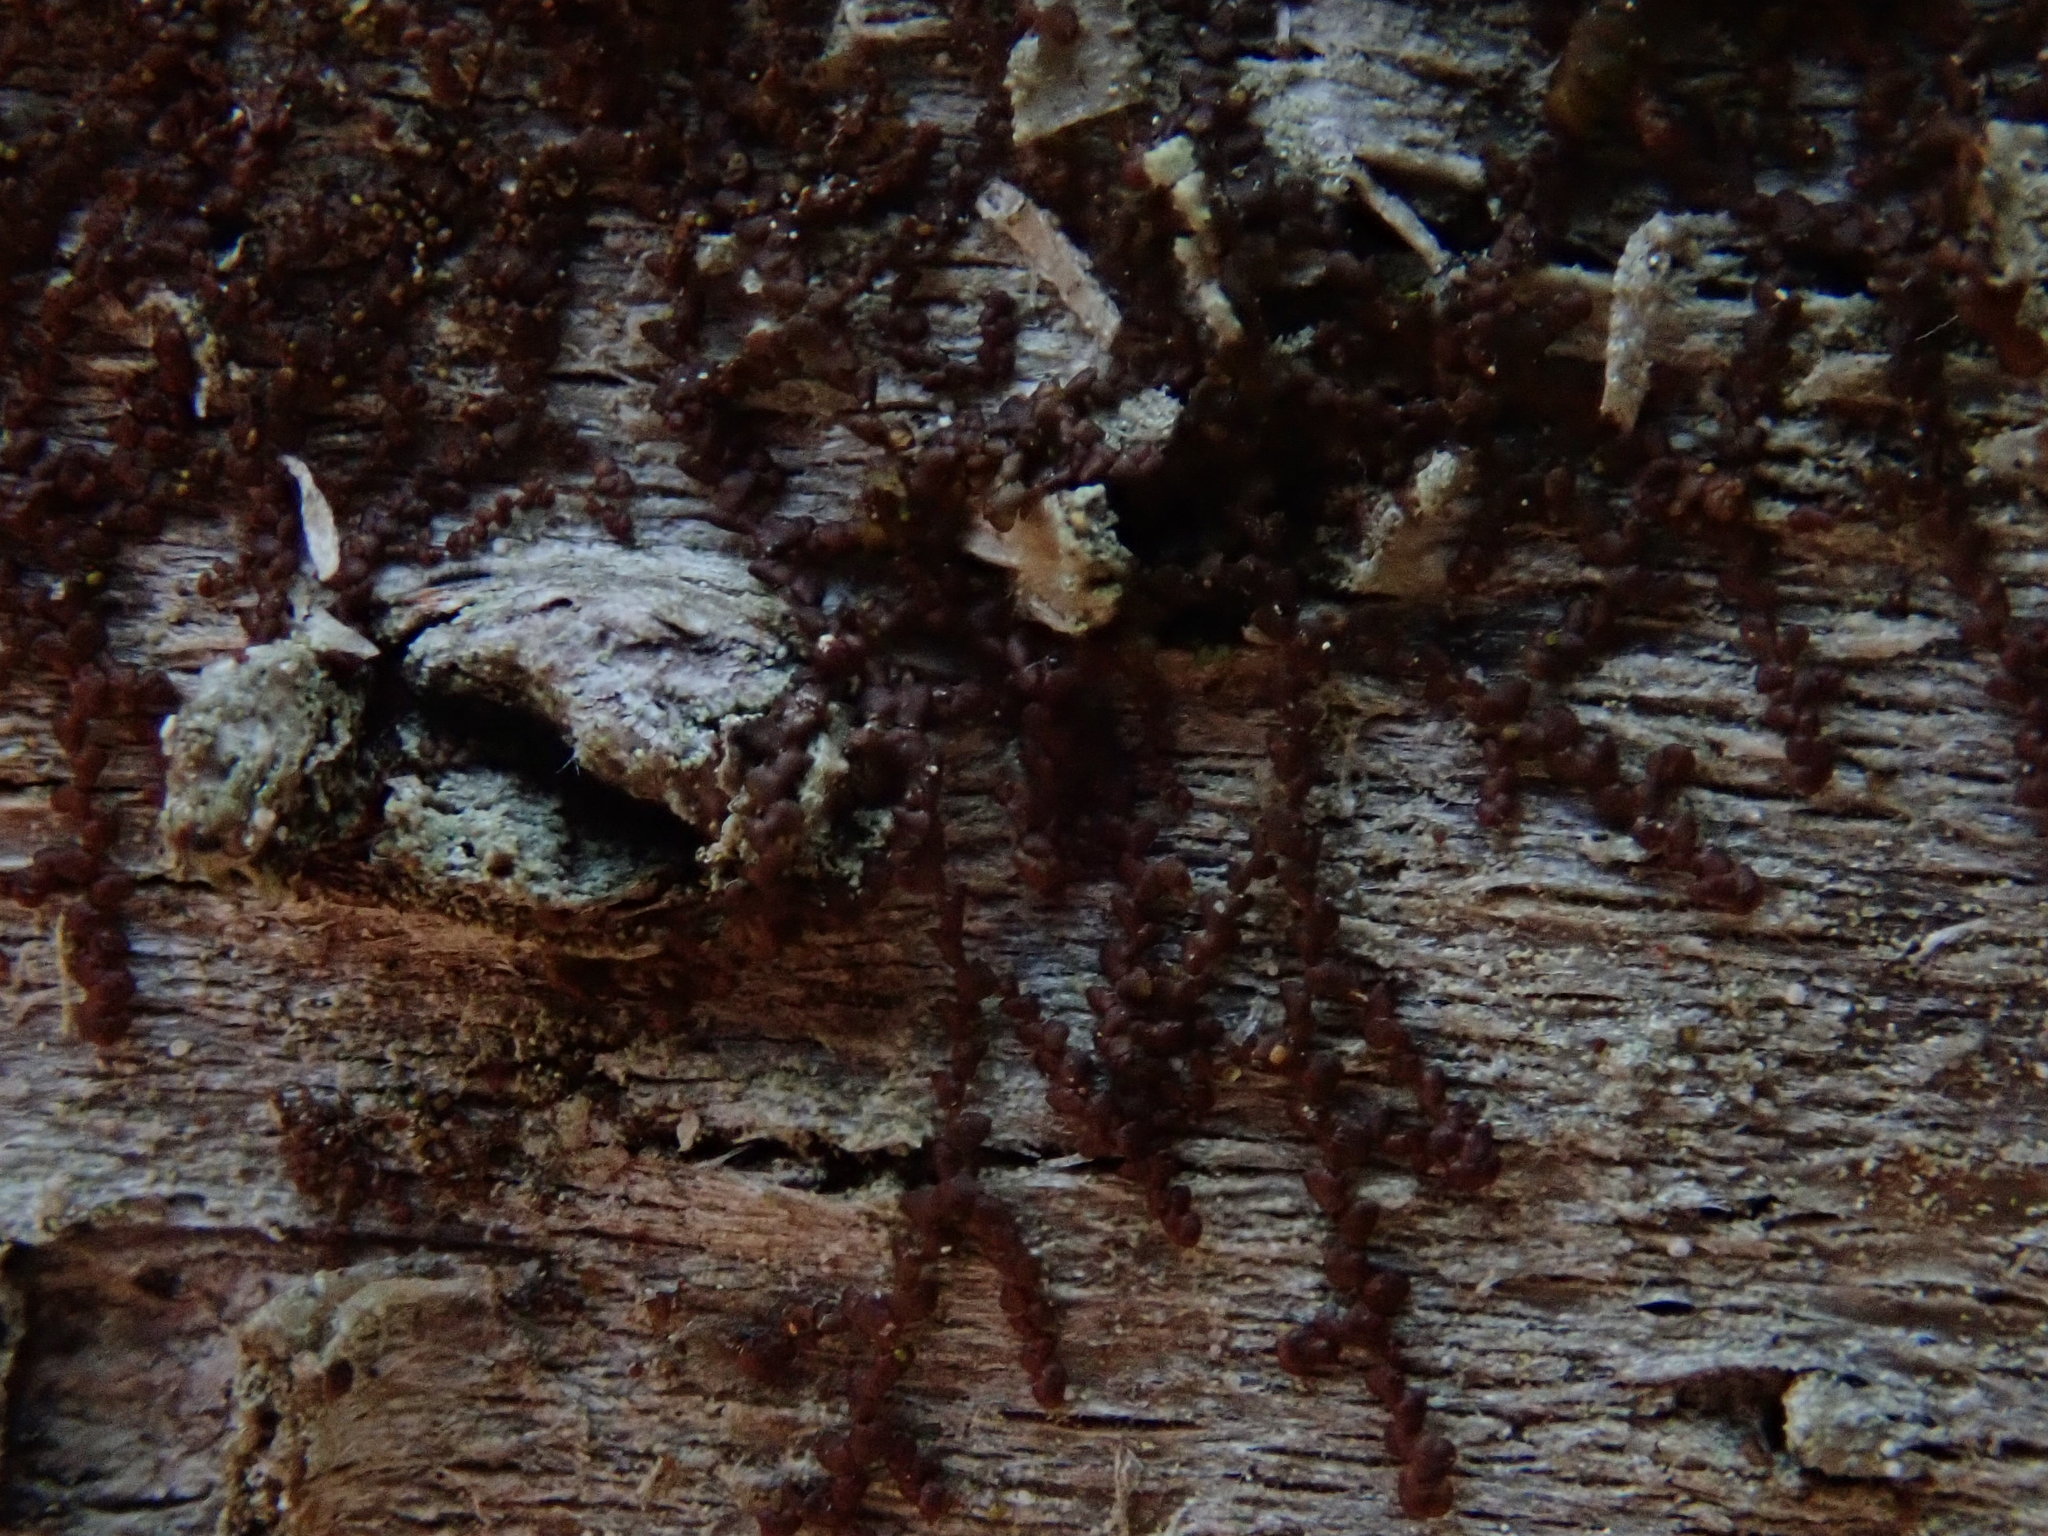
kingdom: Plantae
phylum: Marchantiophyta
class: Jungermanniopsida
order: Porellales
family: Frullaniaceae
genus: Frullania
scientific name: Frullania
